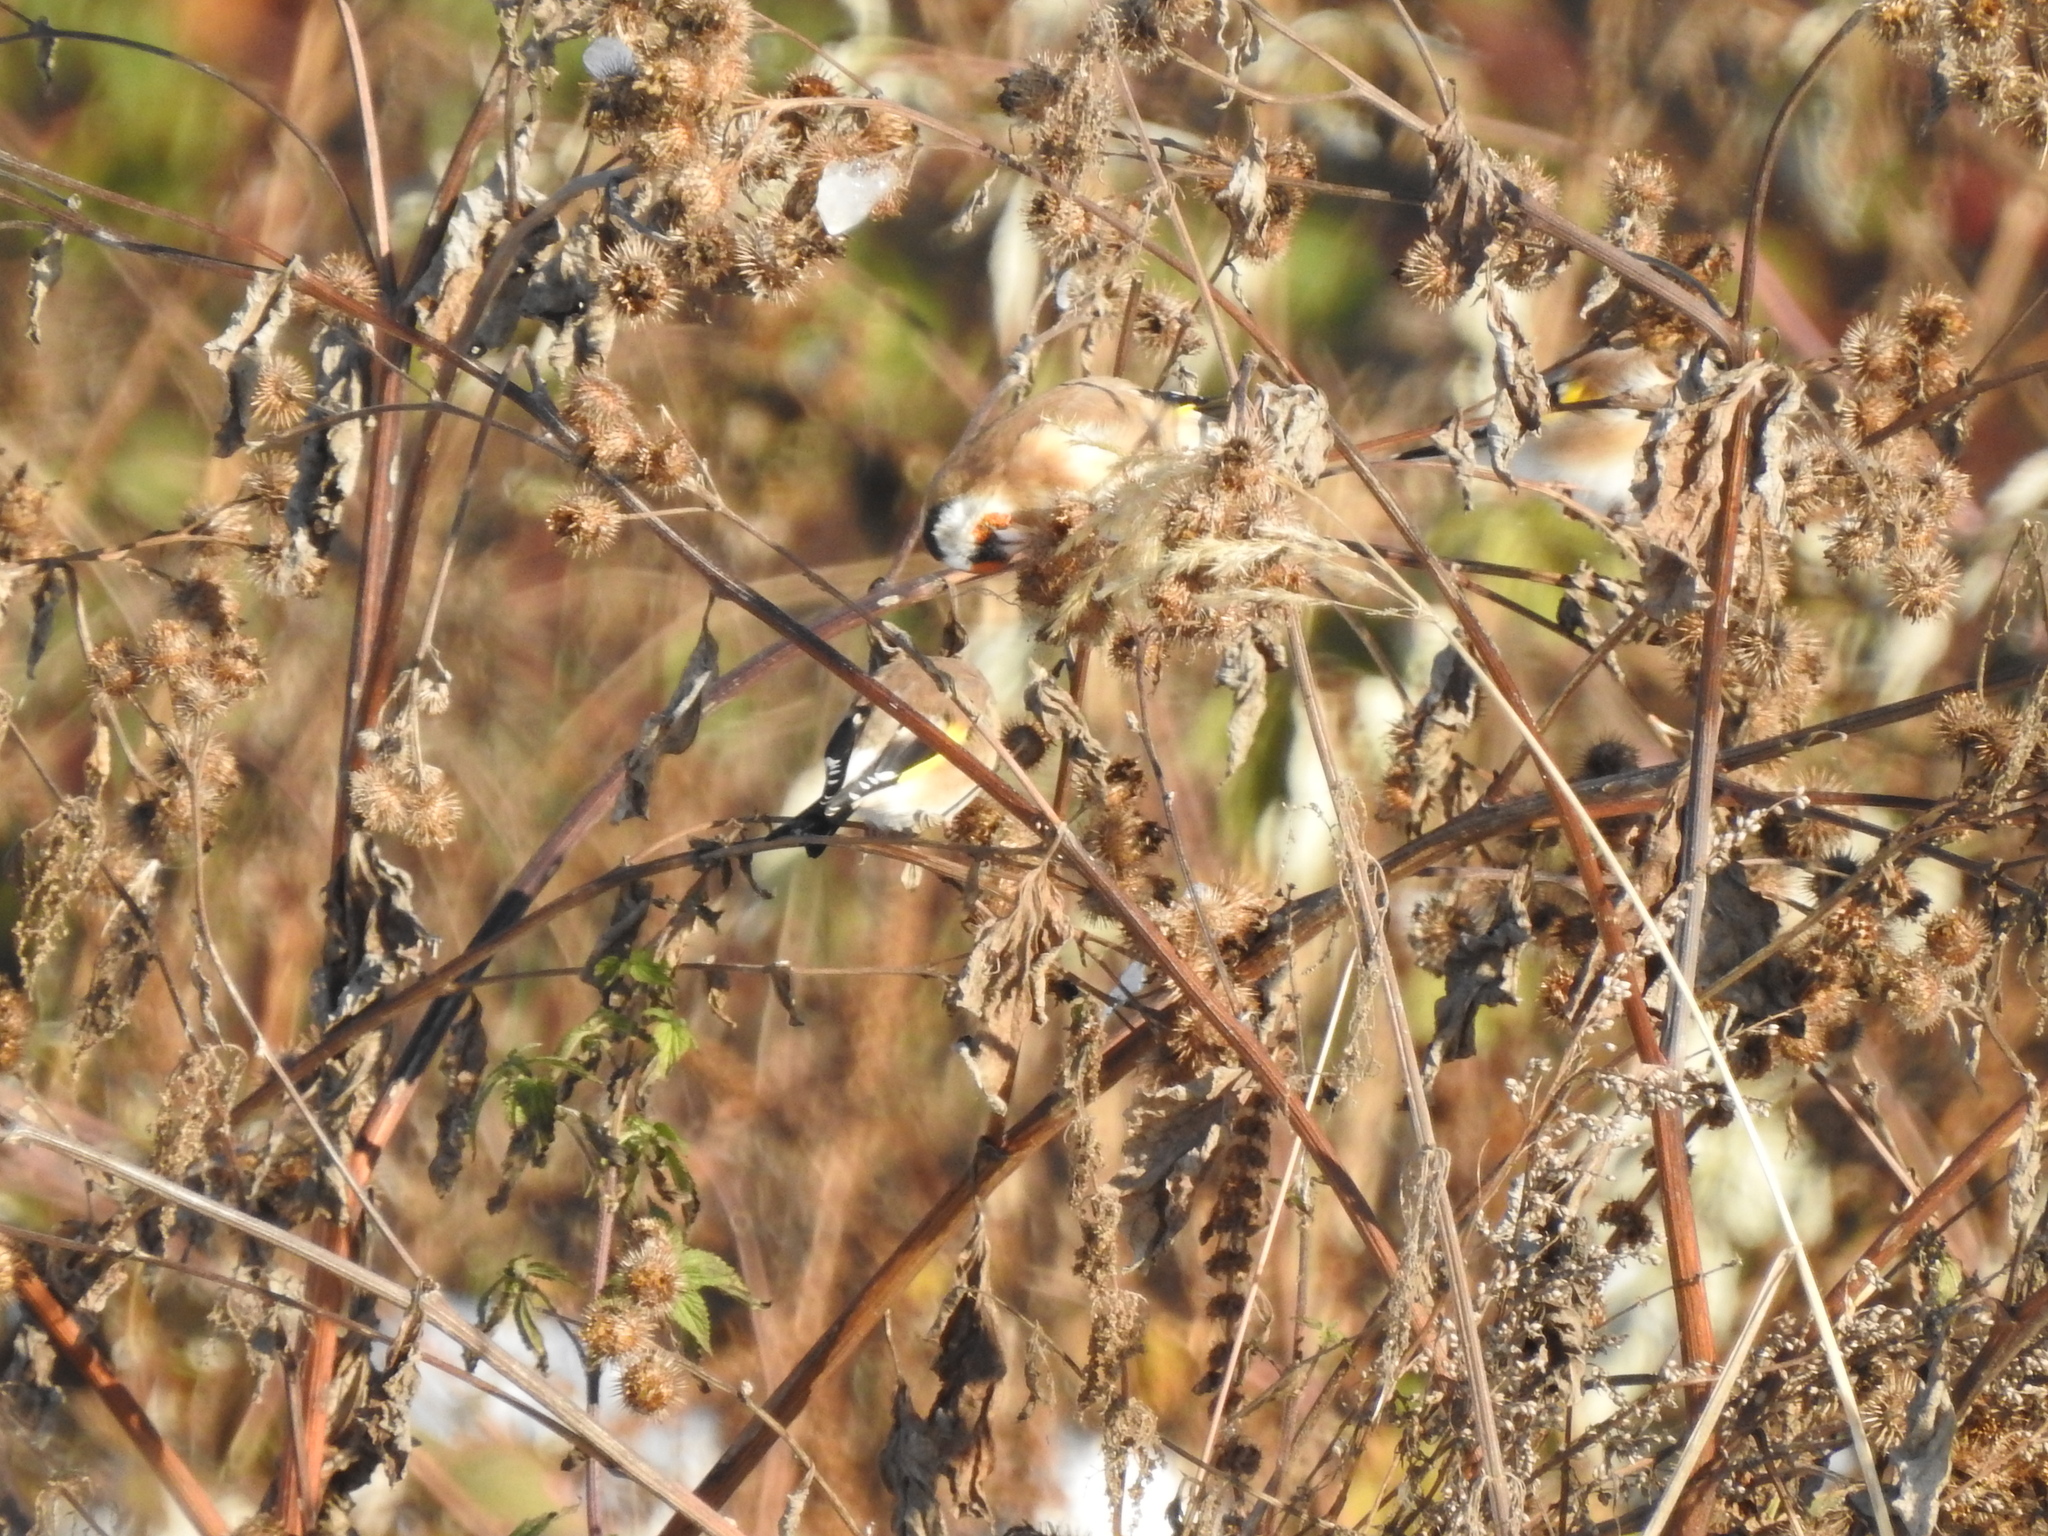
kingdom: Animalia
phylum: Chordata
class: Aves
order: Passeriformes
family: Fringillidae
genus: Carduelis
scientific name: Carduelis carduelis
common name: European goldfinch
